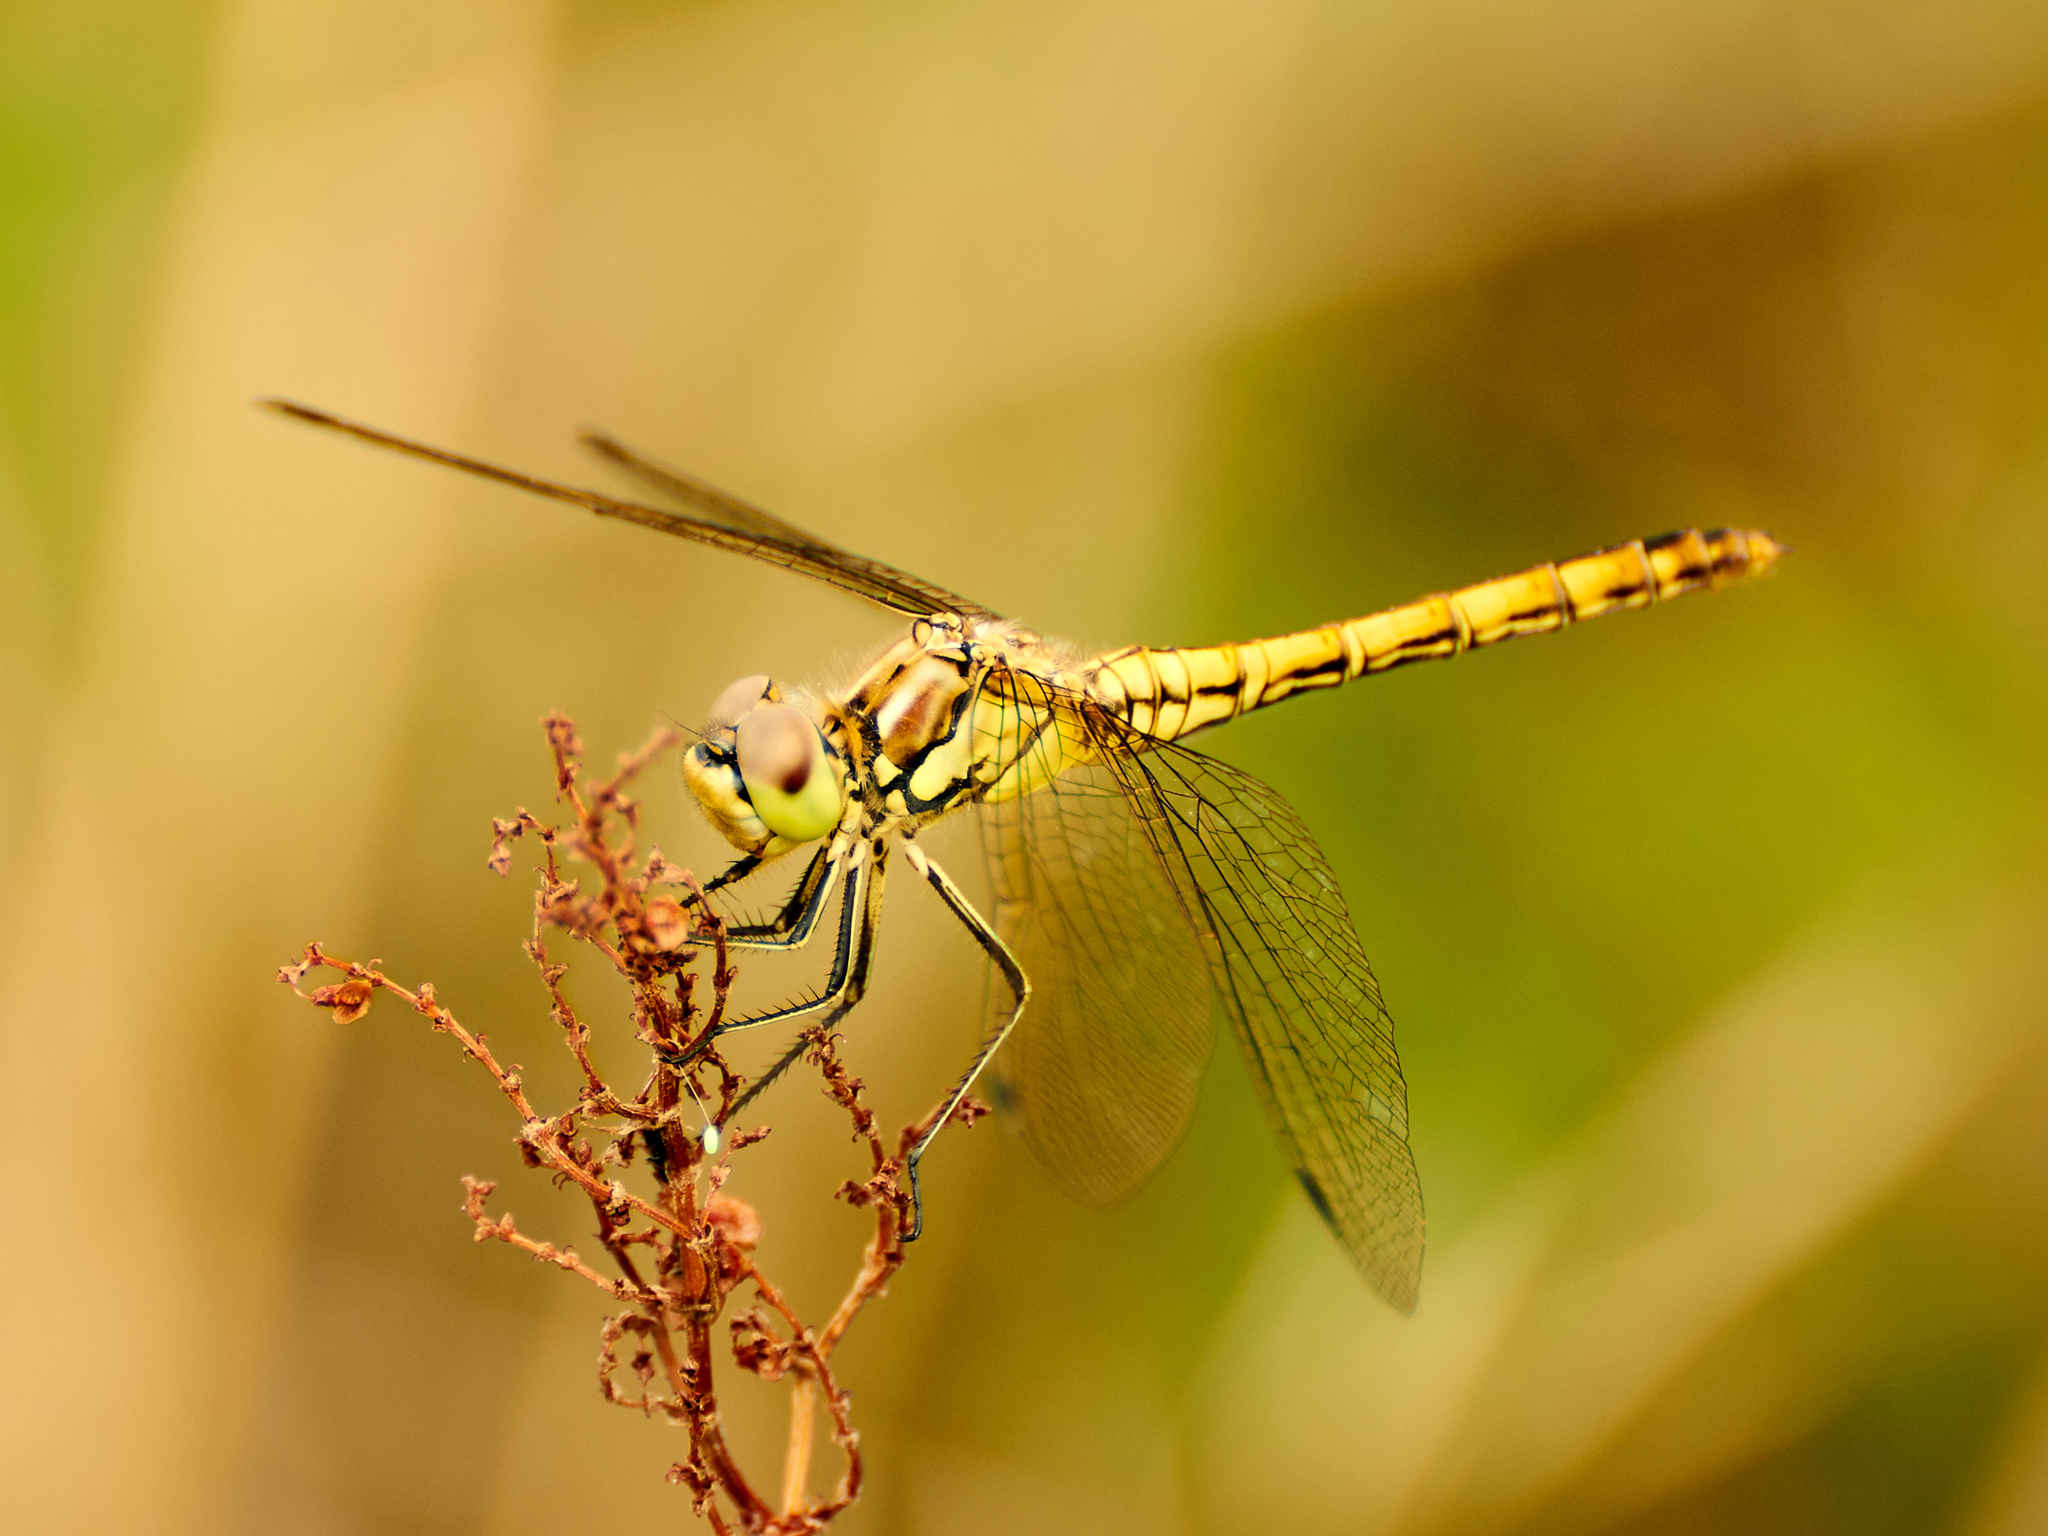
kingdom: Animalia
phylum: Arthropoda
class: Insecta
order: Odonata
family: Libellulidae
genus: Sympetrum
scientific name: Sympetrum vulgatum
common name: Vagrant darter
